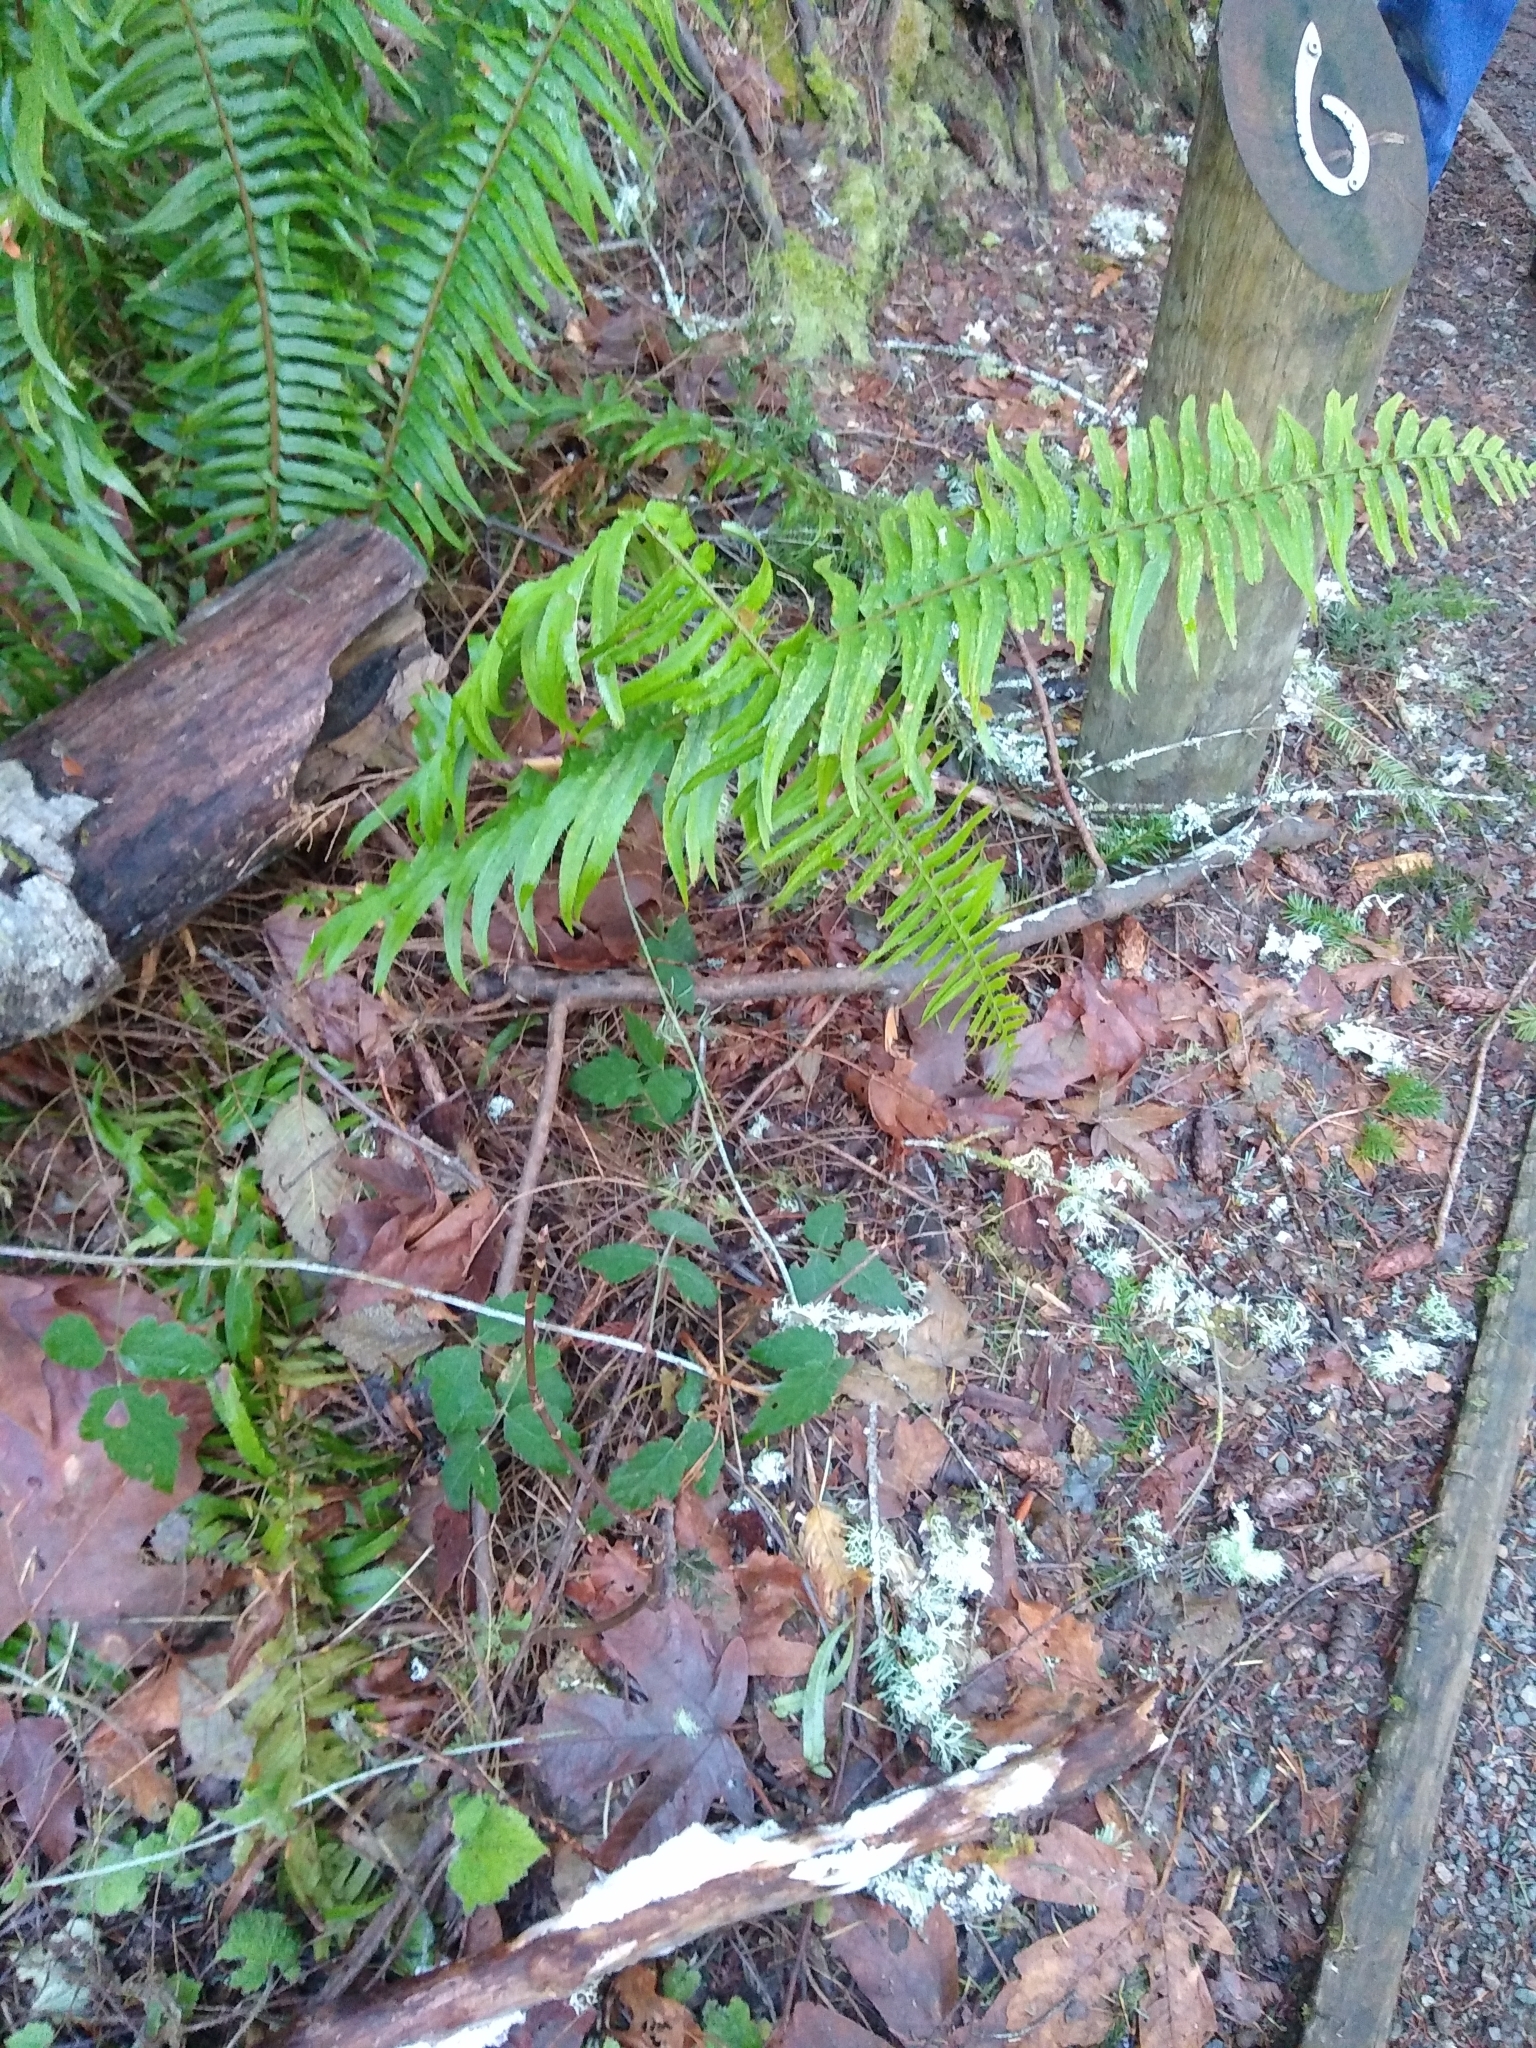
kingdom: Fungi
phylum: Basidiomycota
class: Agaricomycetes
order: Auriculariales
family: Auriculariaceae
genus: Exidiopsis
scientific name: Exidiopsis effusa
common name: Hair ice crust
